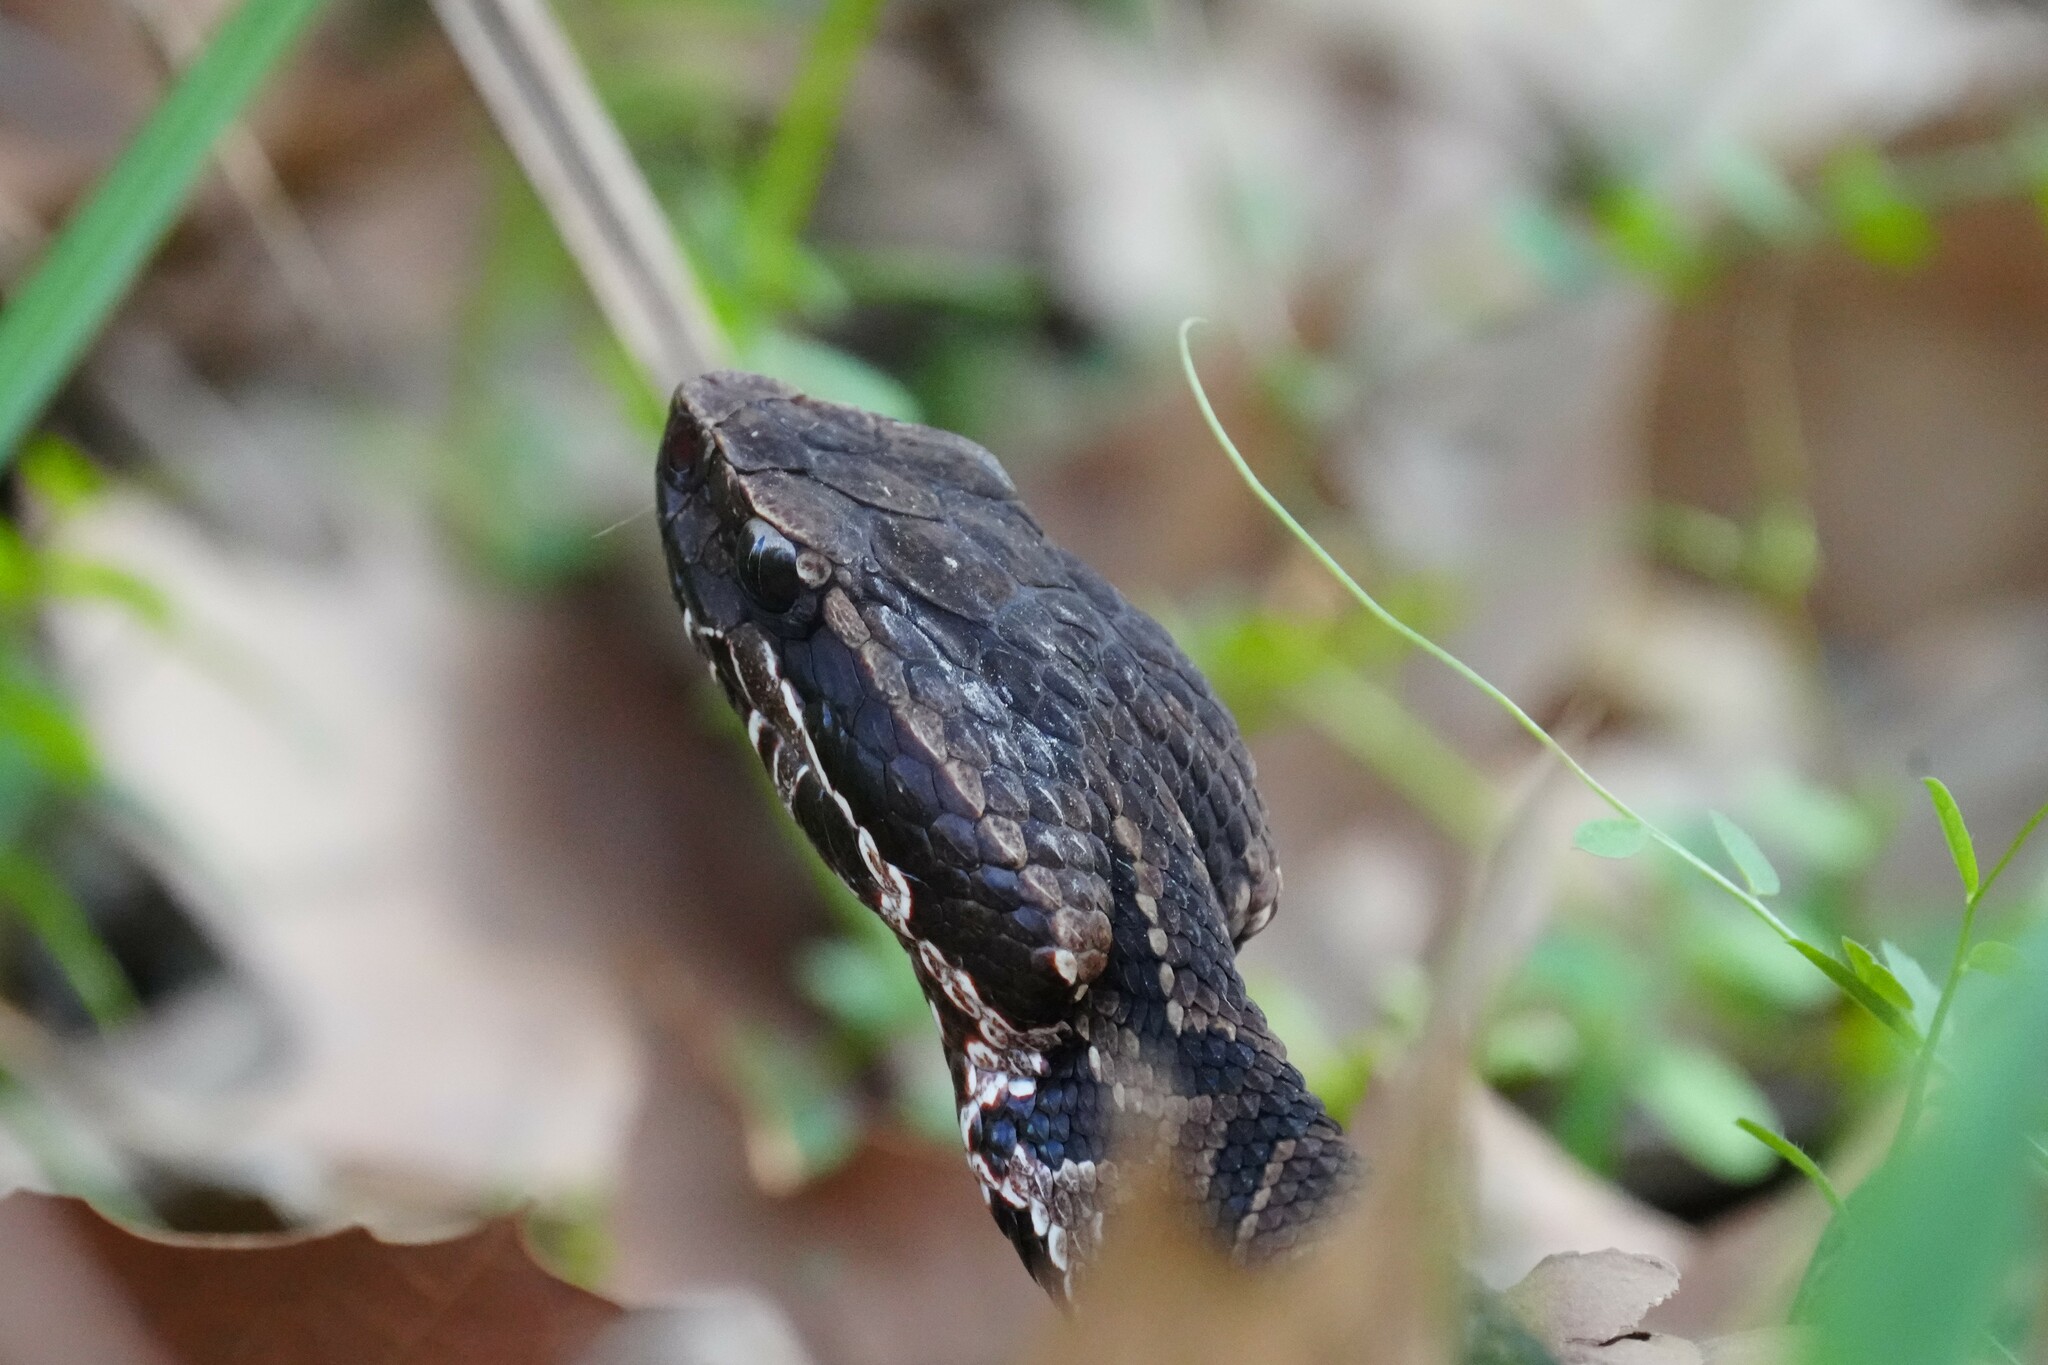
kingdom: Animalia
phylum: Chordata
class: Squamata
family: Viperidae
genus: Agkistrodon
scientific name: Agkistrodon piscivorus
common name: Cottonmouth
